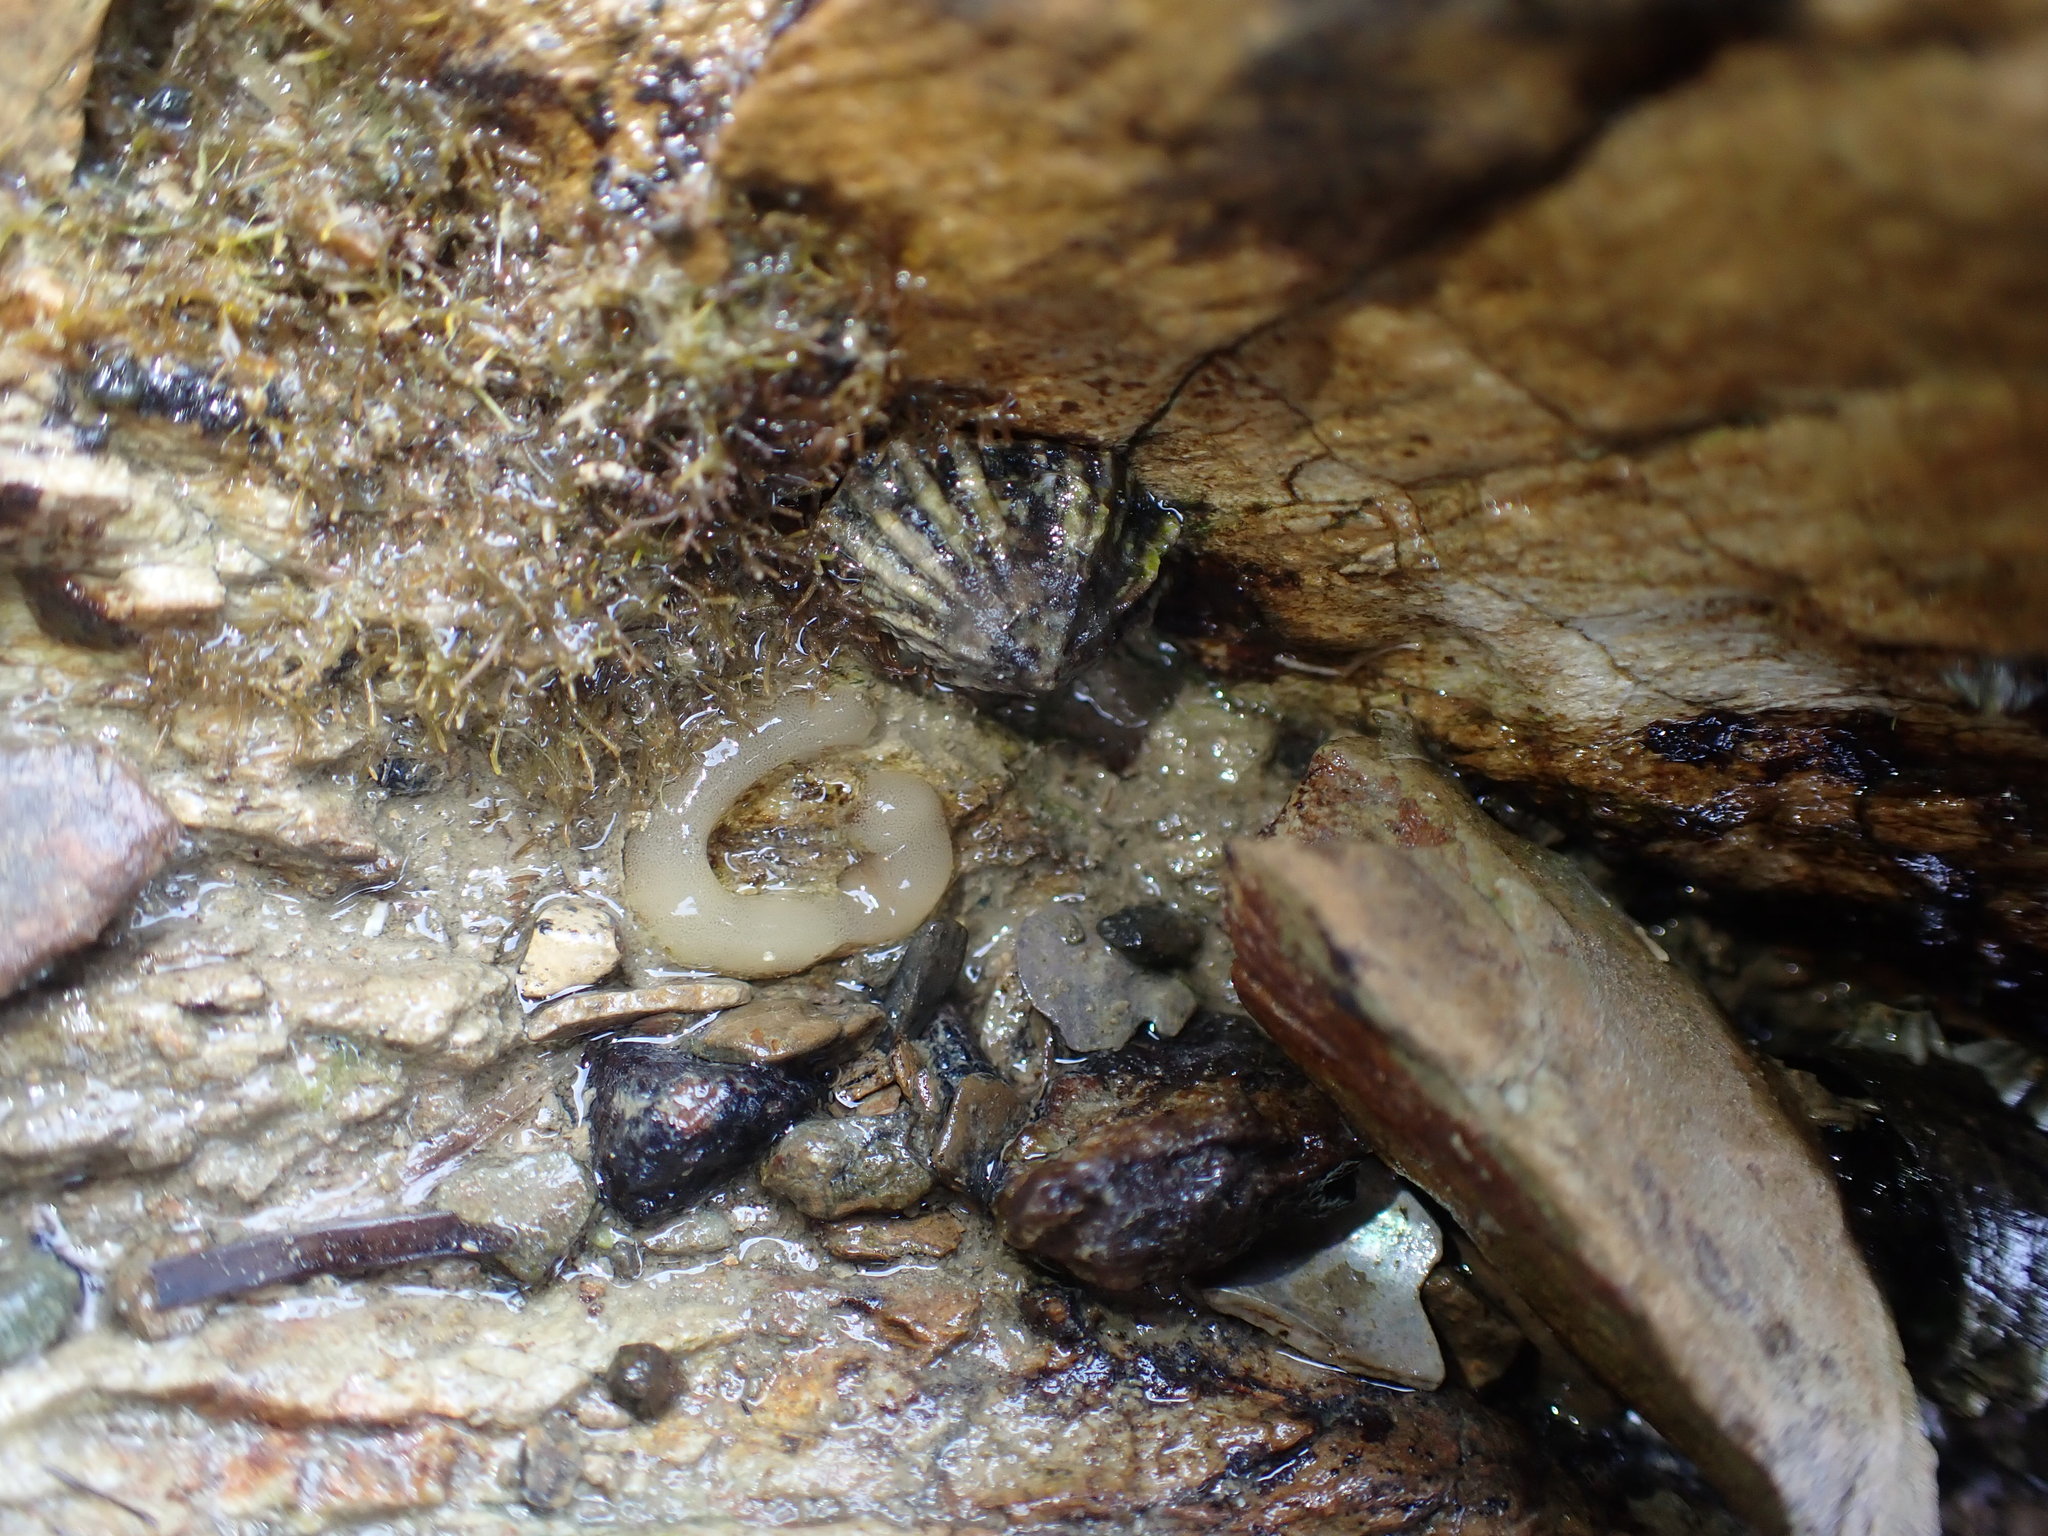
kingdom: Animalia
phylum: Mollusca
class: Gastropoda
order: Siphonariida
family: Siphonariidae
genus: Siphonaria
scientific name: Siphonaria australis
